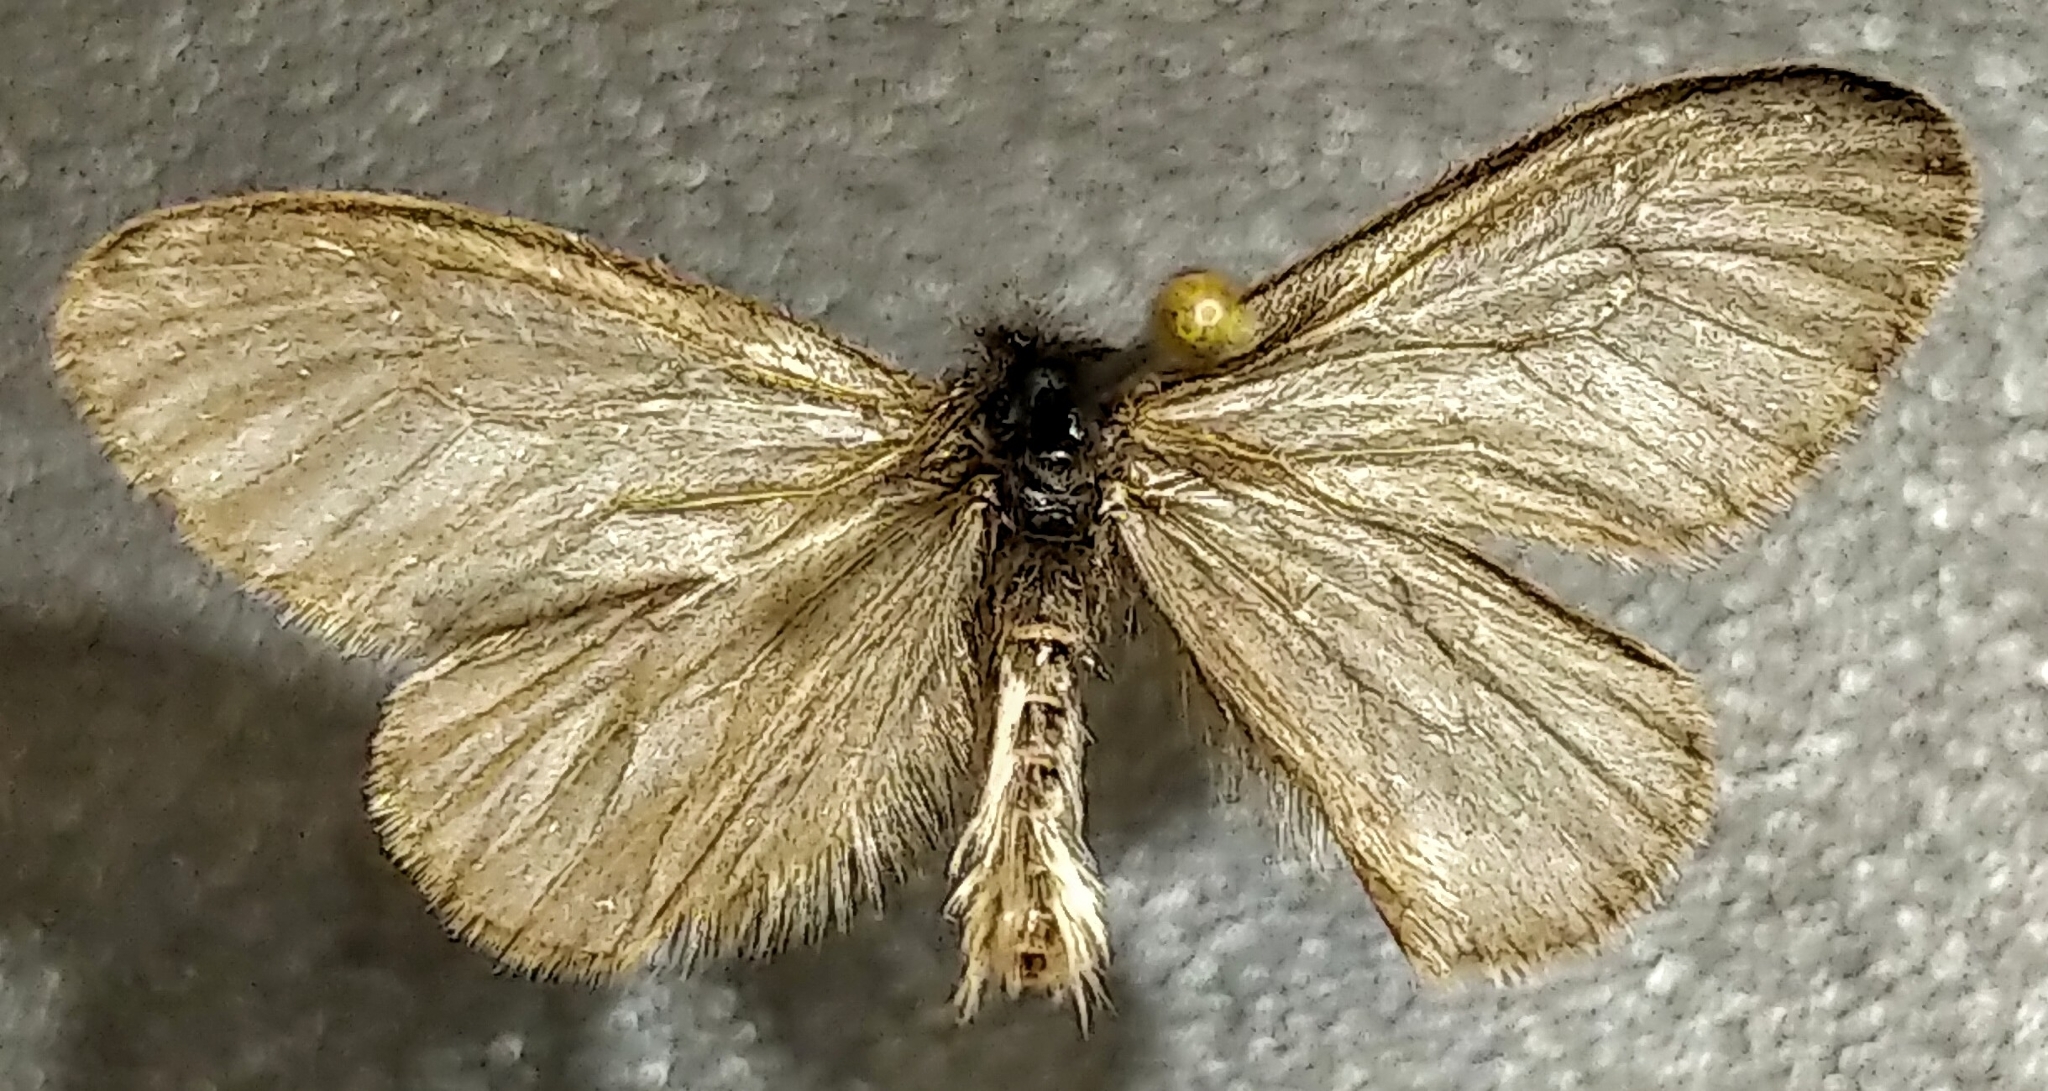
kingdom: Animalia
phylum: Arthropoda
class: Insecta
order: Lepidoptera
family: Psychidae
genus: Hyaloscotes
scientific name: Hyaloscotes pithopoera
